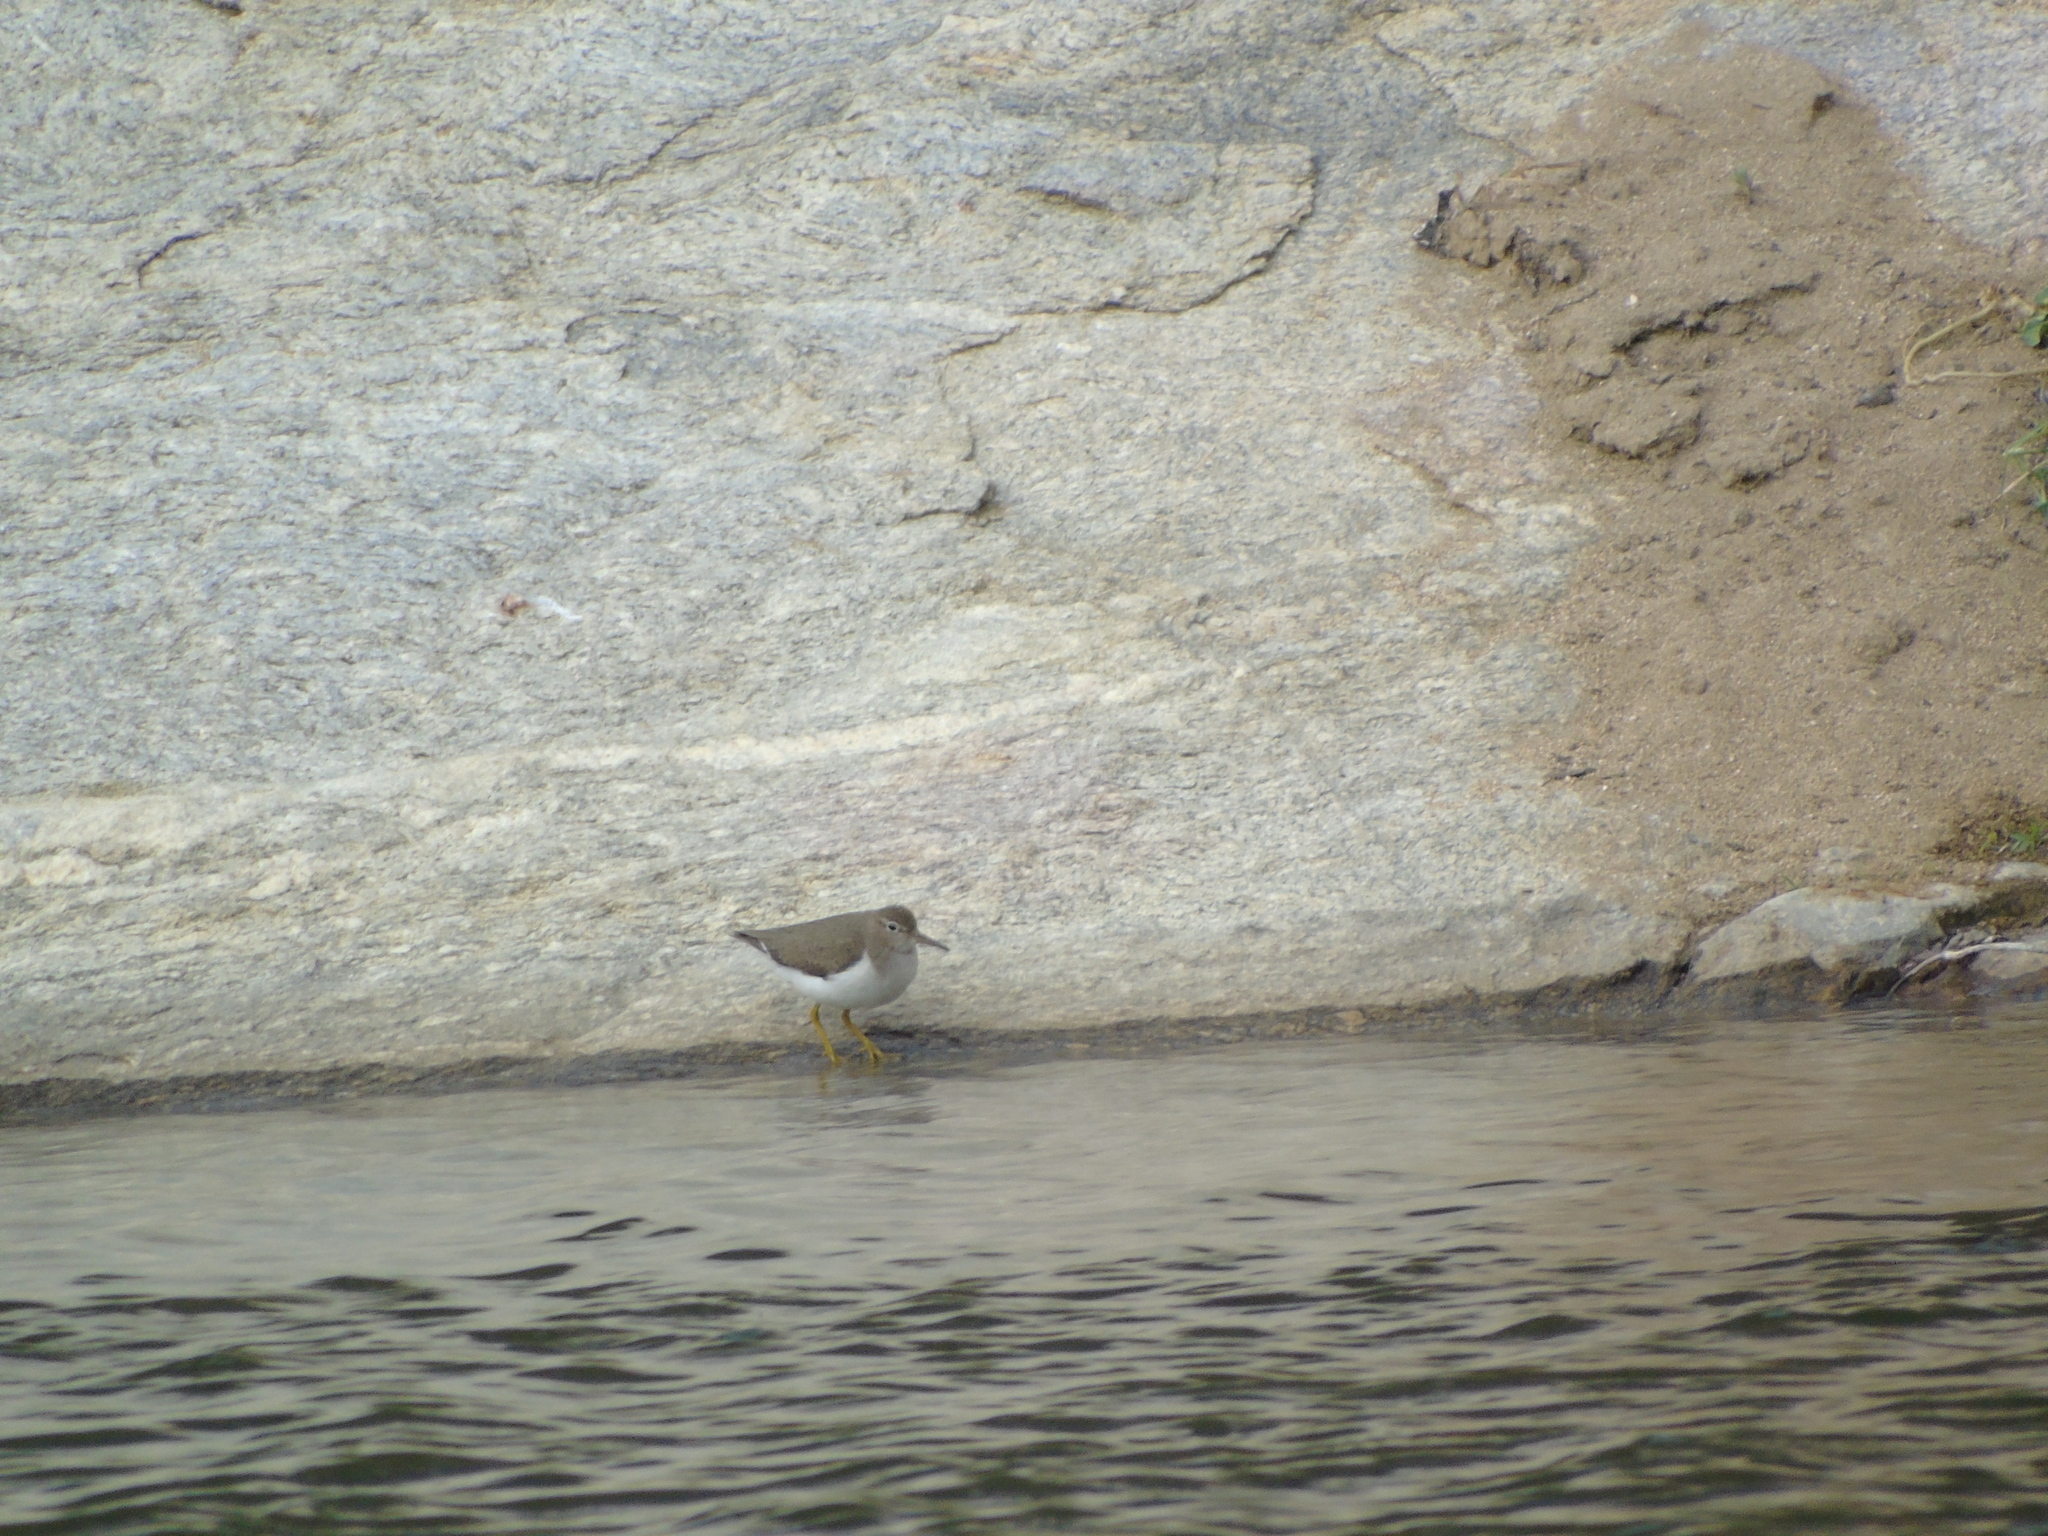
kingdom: Animalia
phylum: Chordata
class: Aves
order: Charadriiformes
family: Scolopacidae
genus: Actitis
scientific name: Actitis macularius
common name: Spotted sandpiper
